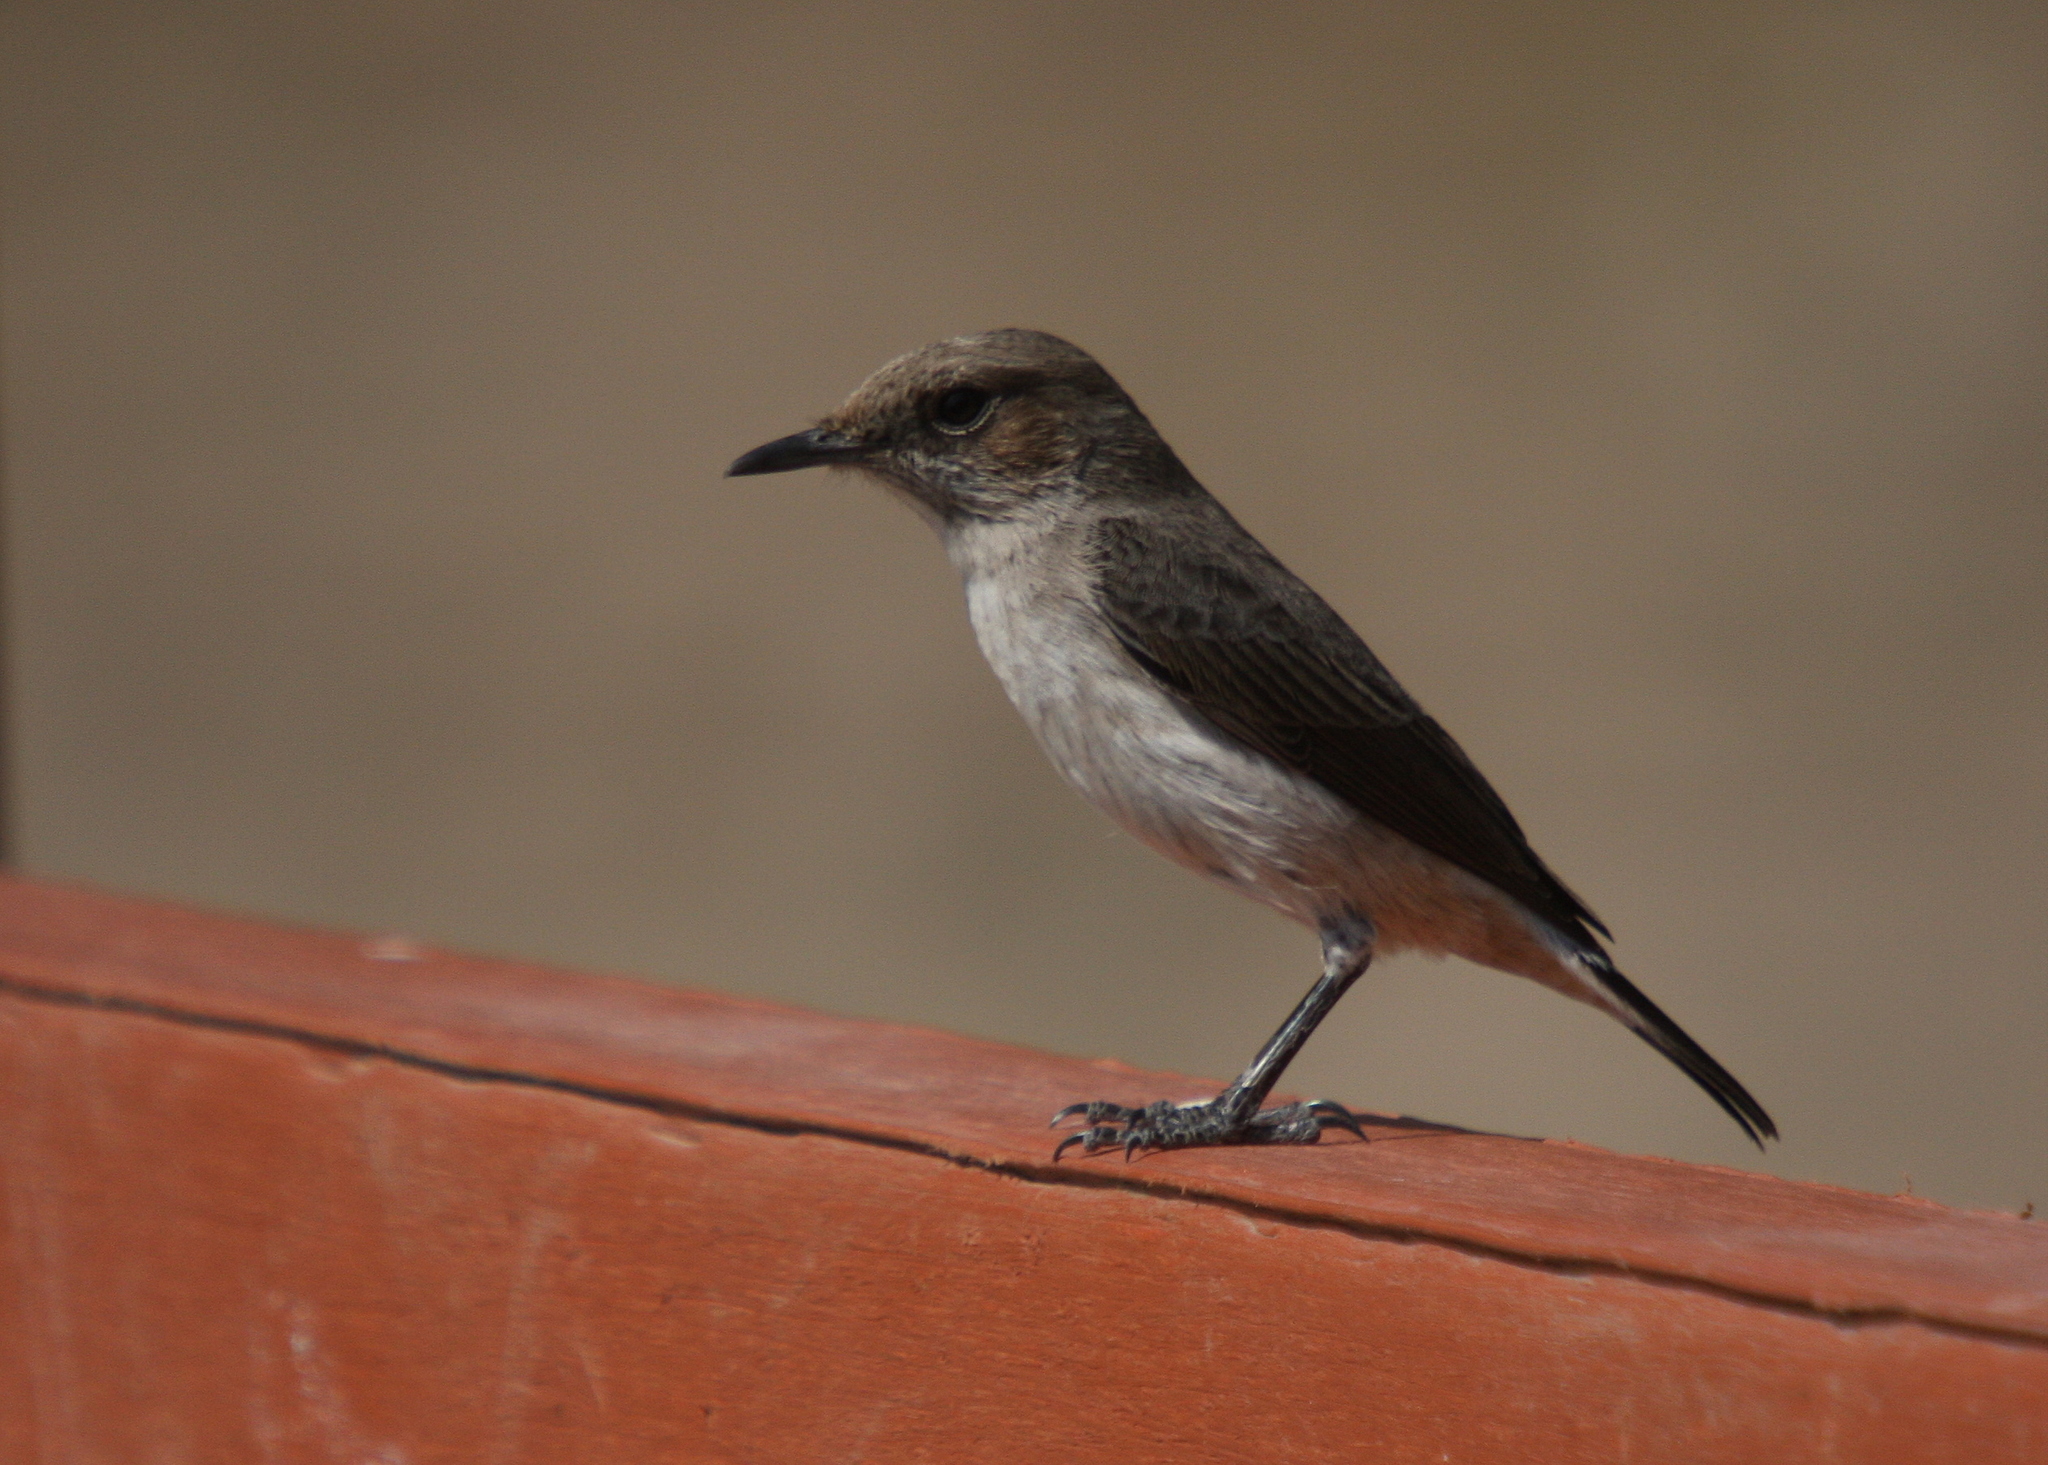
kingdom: Animalia
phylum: Chordata
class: Aves
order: Passeriformes
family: Muscicapidae
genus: Oenanthe
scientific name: Oenanthe lugentoides
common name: Arabian wheatear
